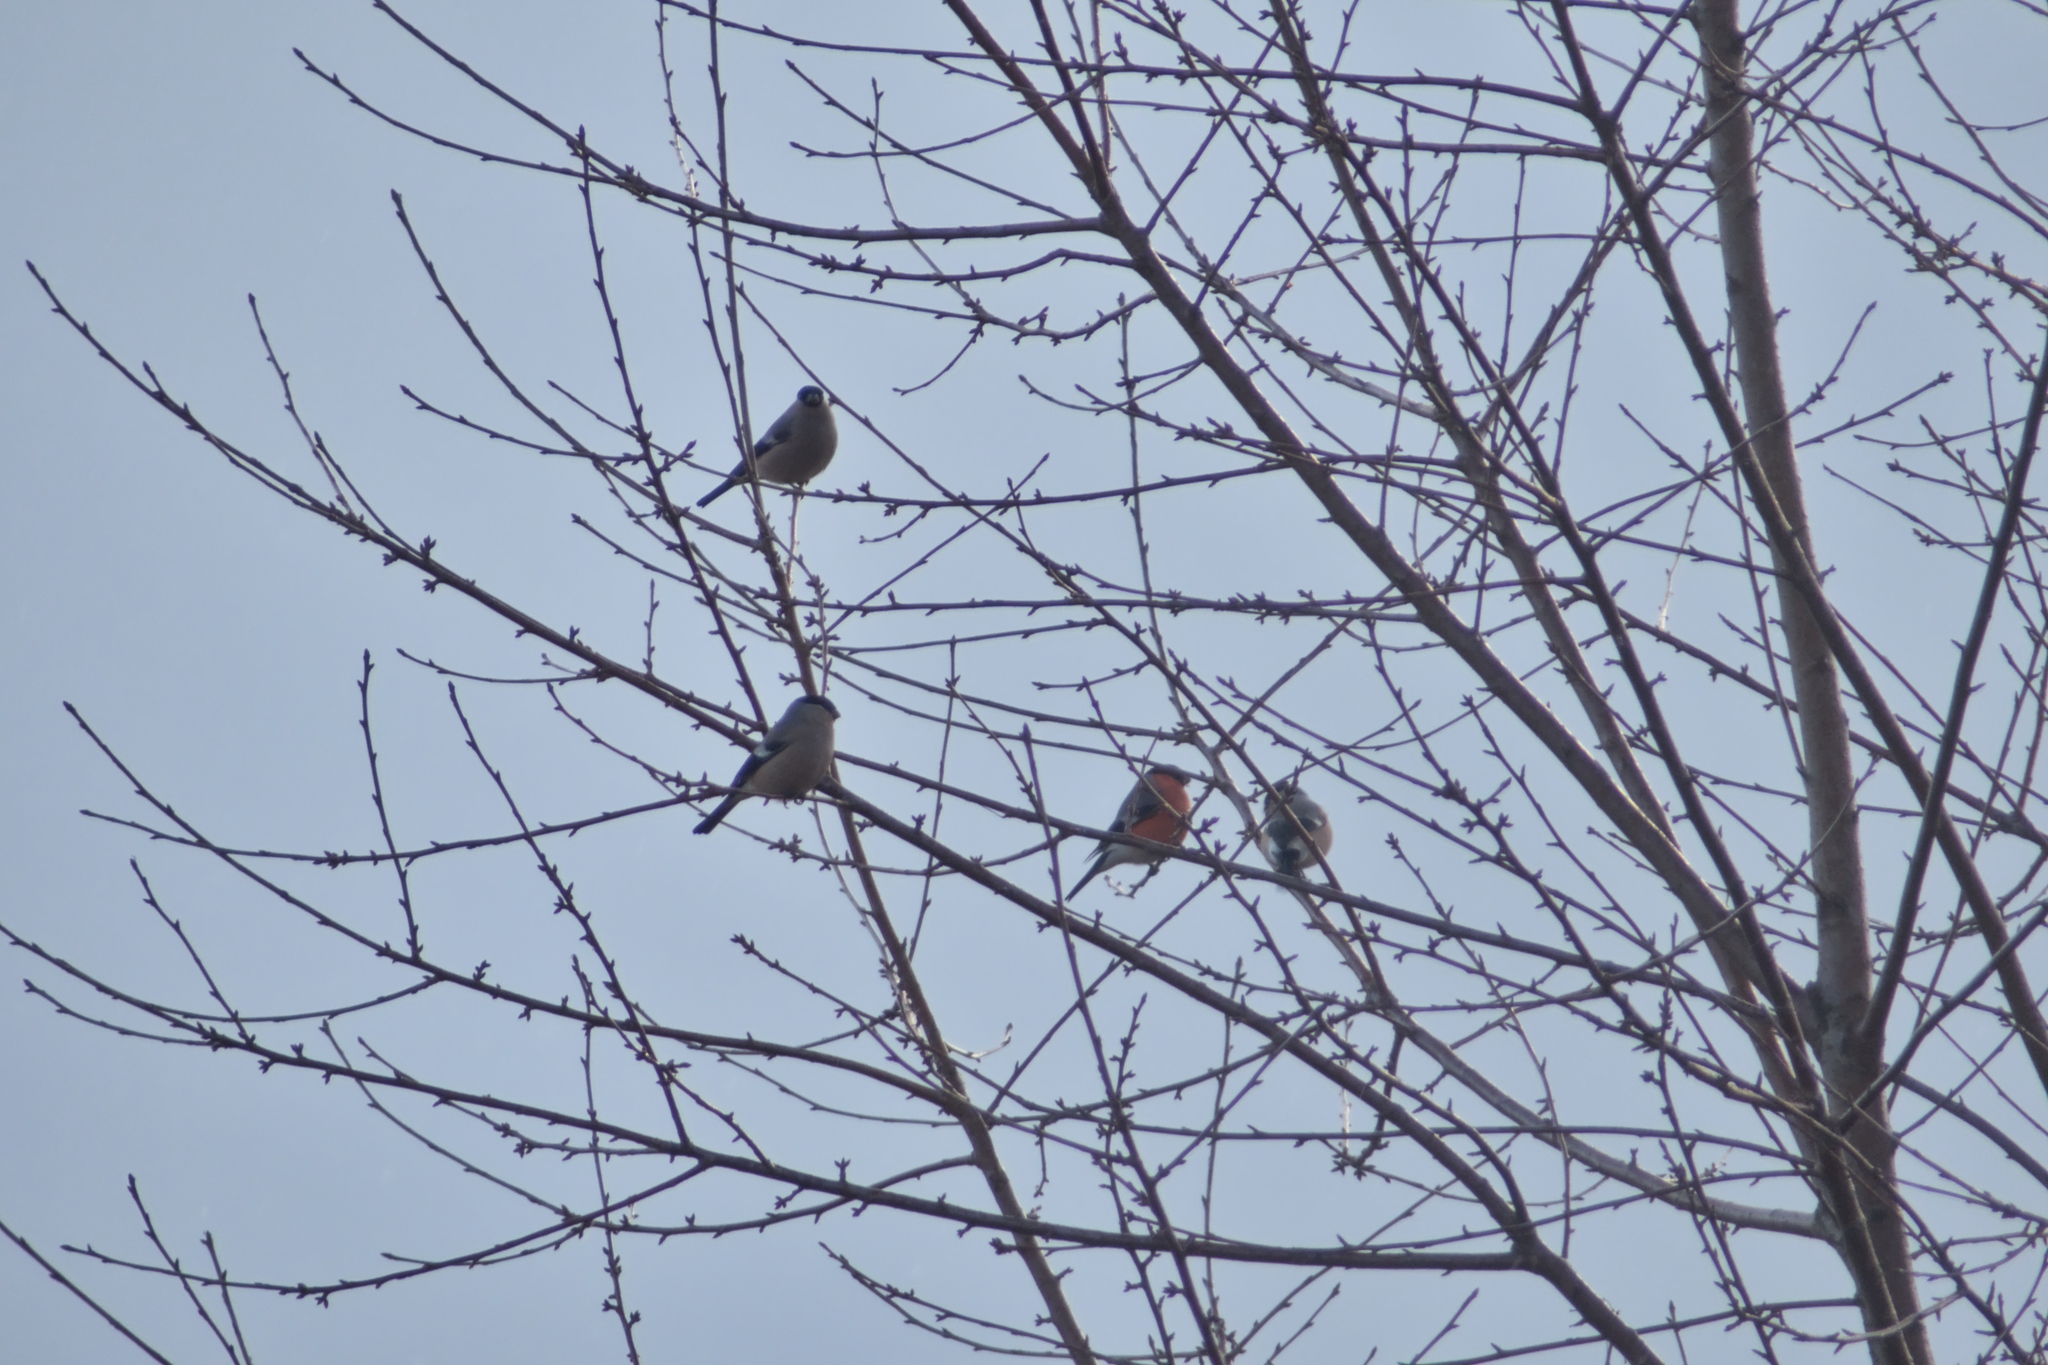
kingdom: Animalia
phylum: Chordata
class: Aves
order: Passeriformes
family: Fringillidae
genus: Pyrrhula
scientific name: Pyrrhula pyrrhula
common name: Eurasian bullfinch
